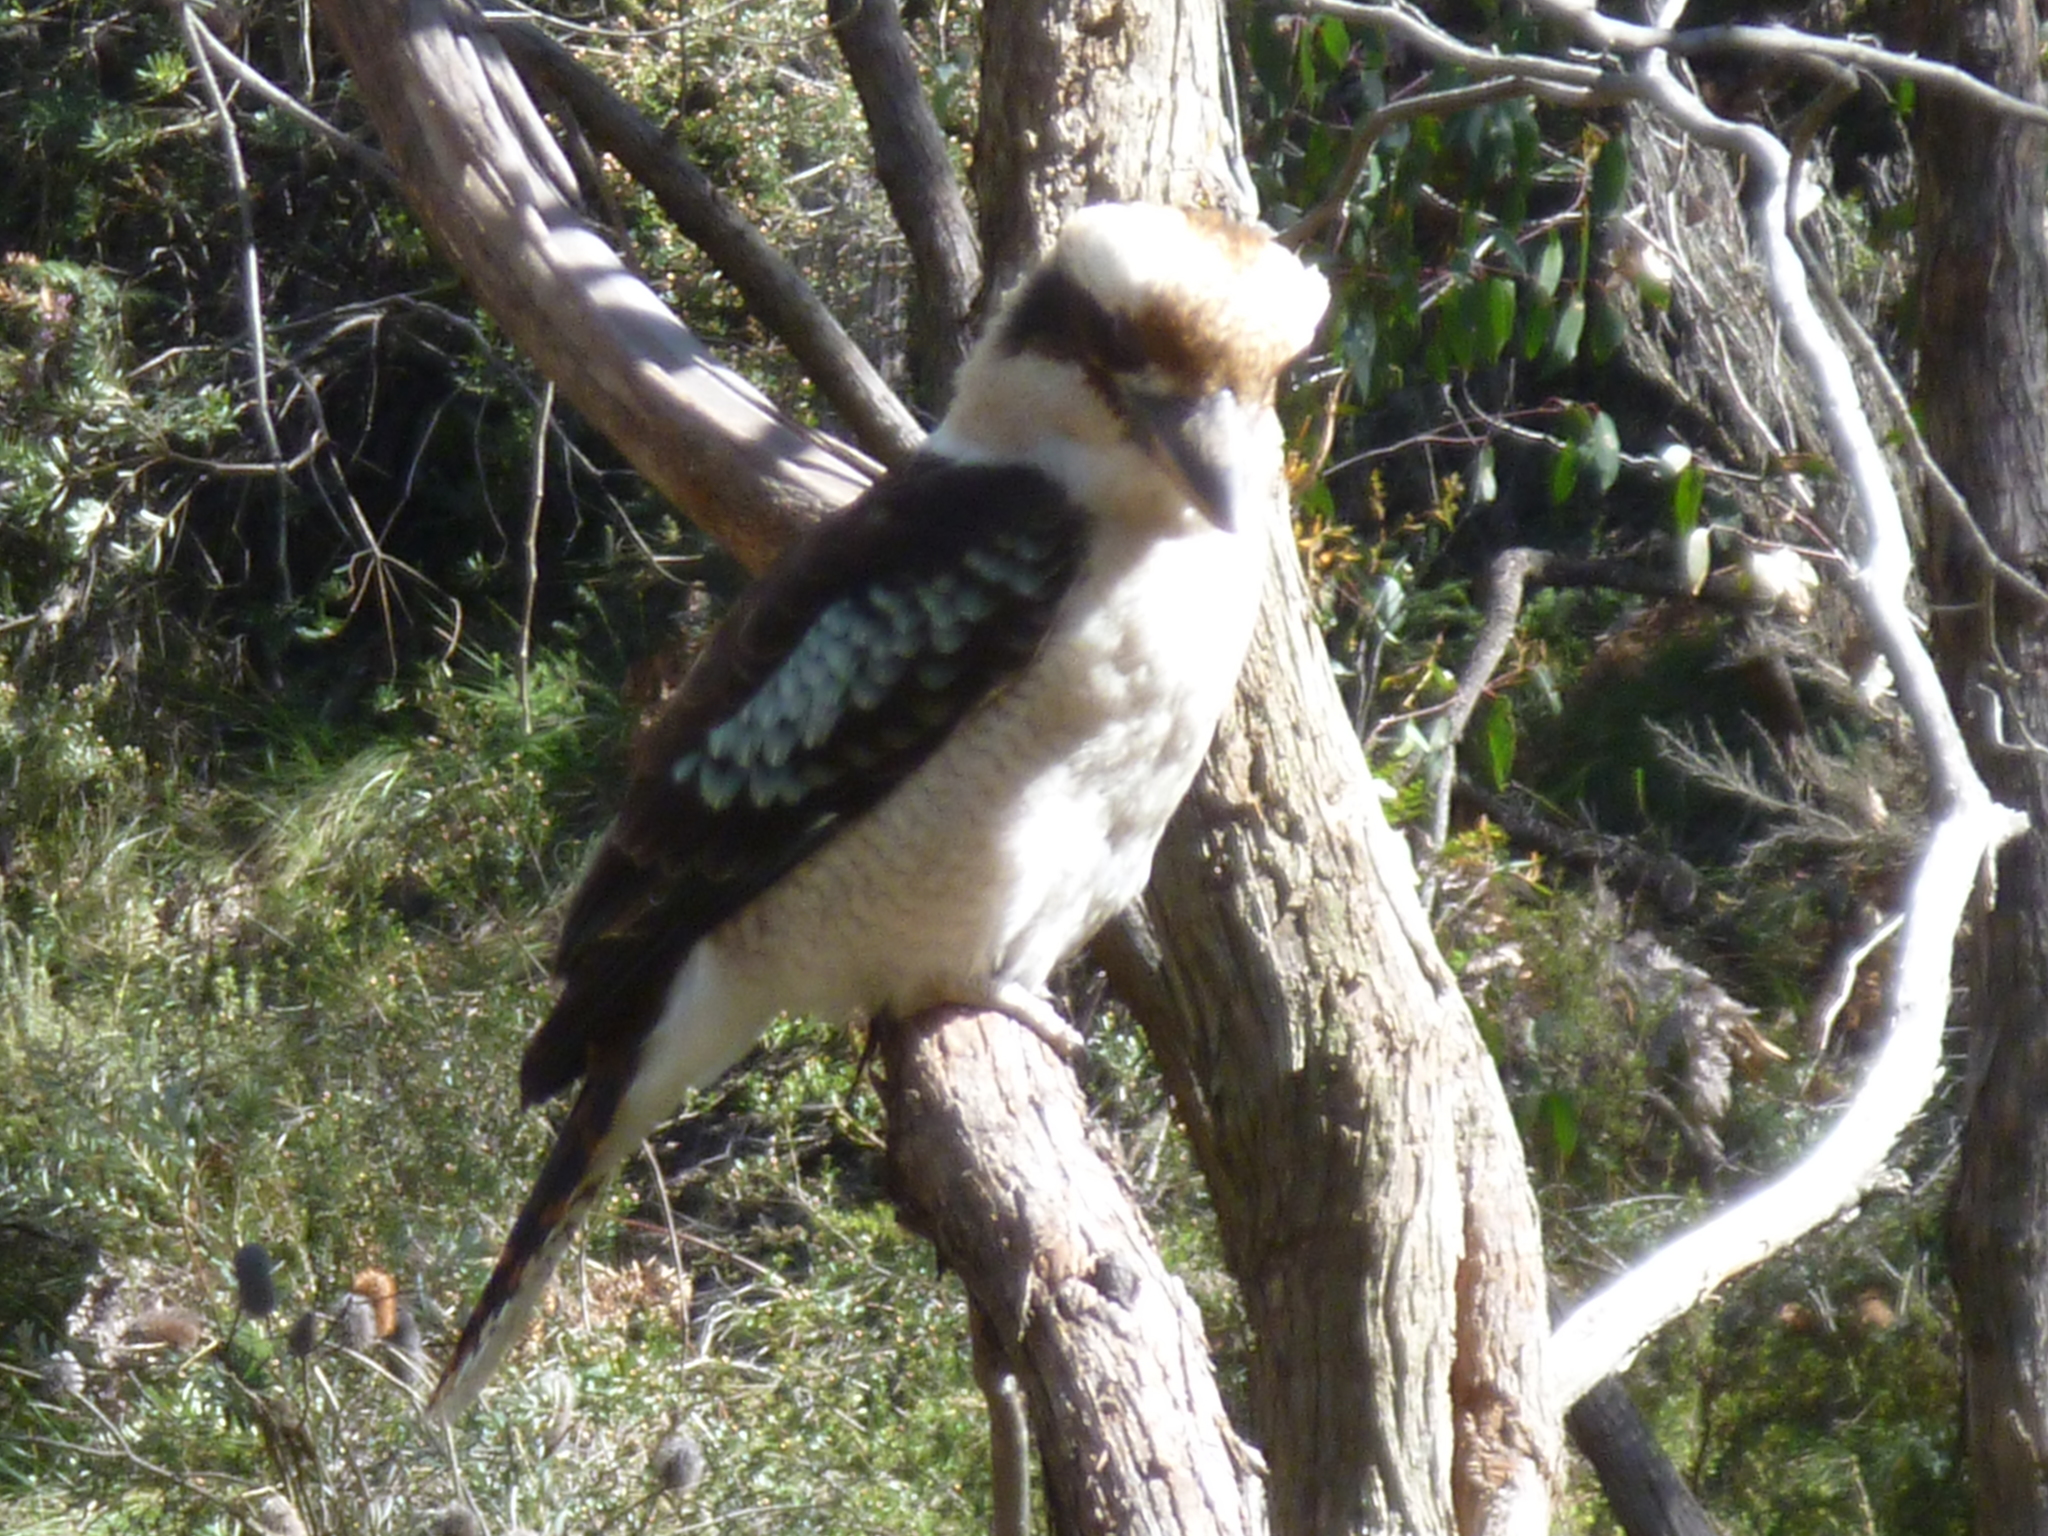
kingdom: Animalia
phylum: Chordata
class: Aves
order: Coraciiformes
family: Alcedinidae
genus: Dacelo
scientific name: Dacelo novaeguineae
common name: Laughing kookaburra
